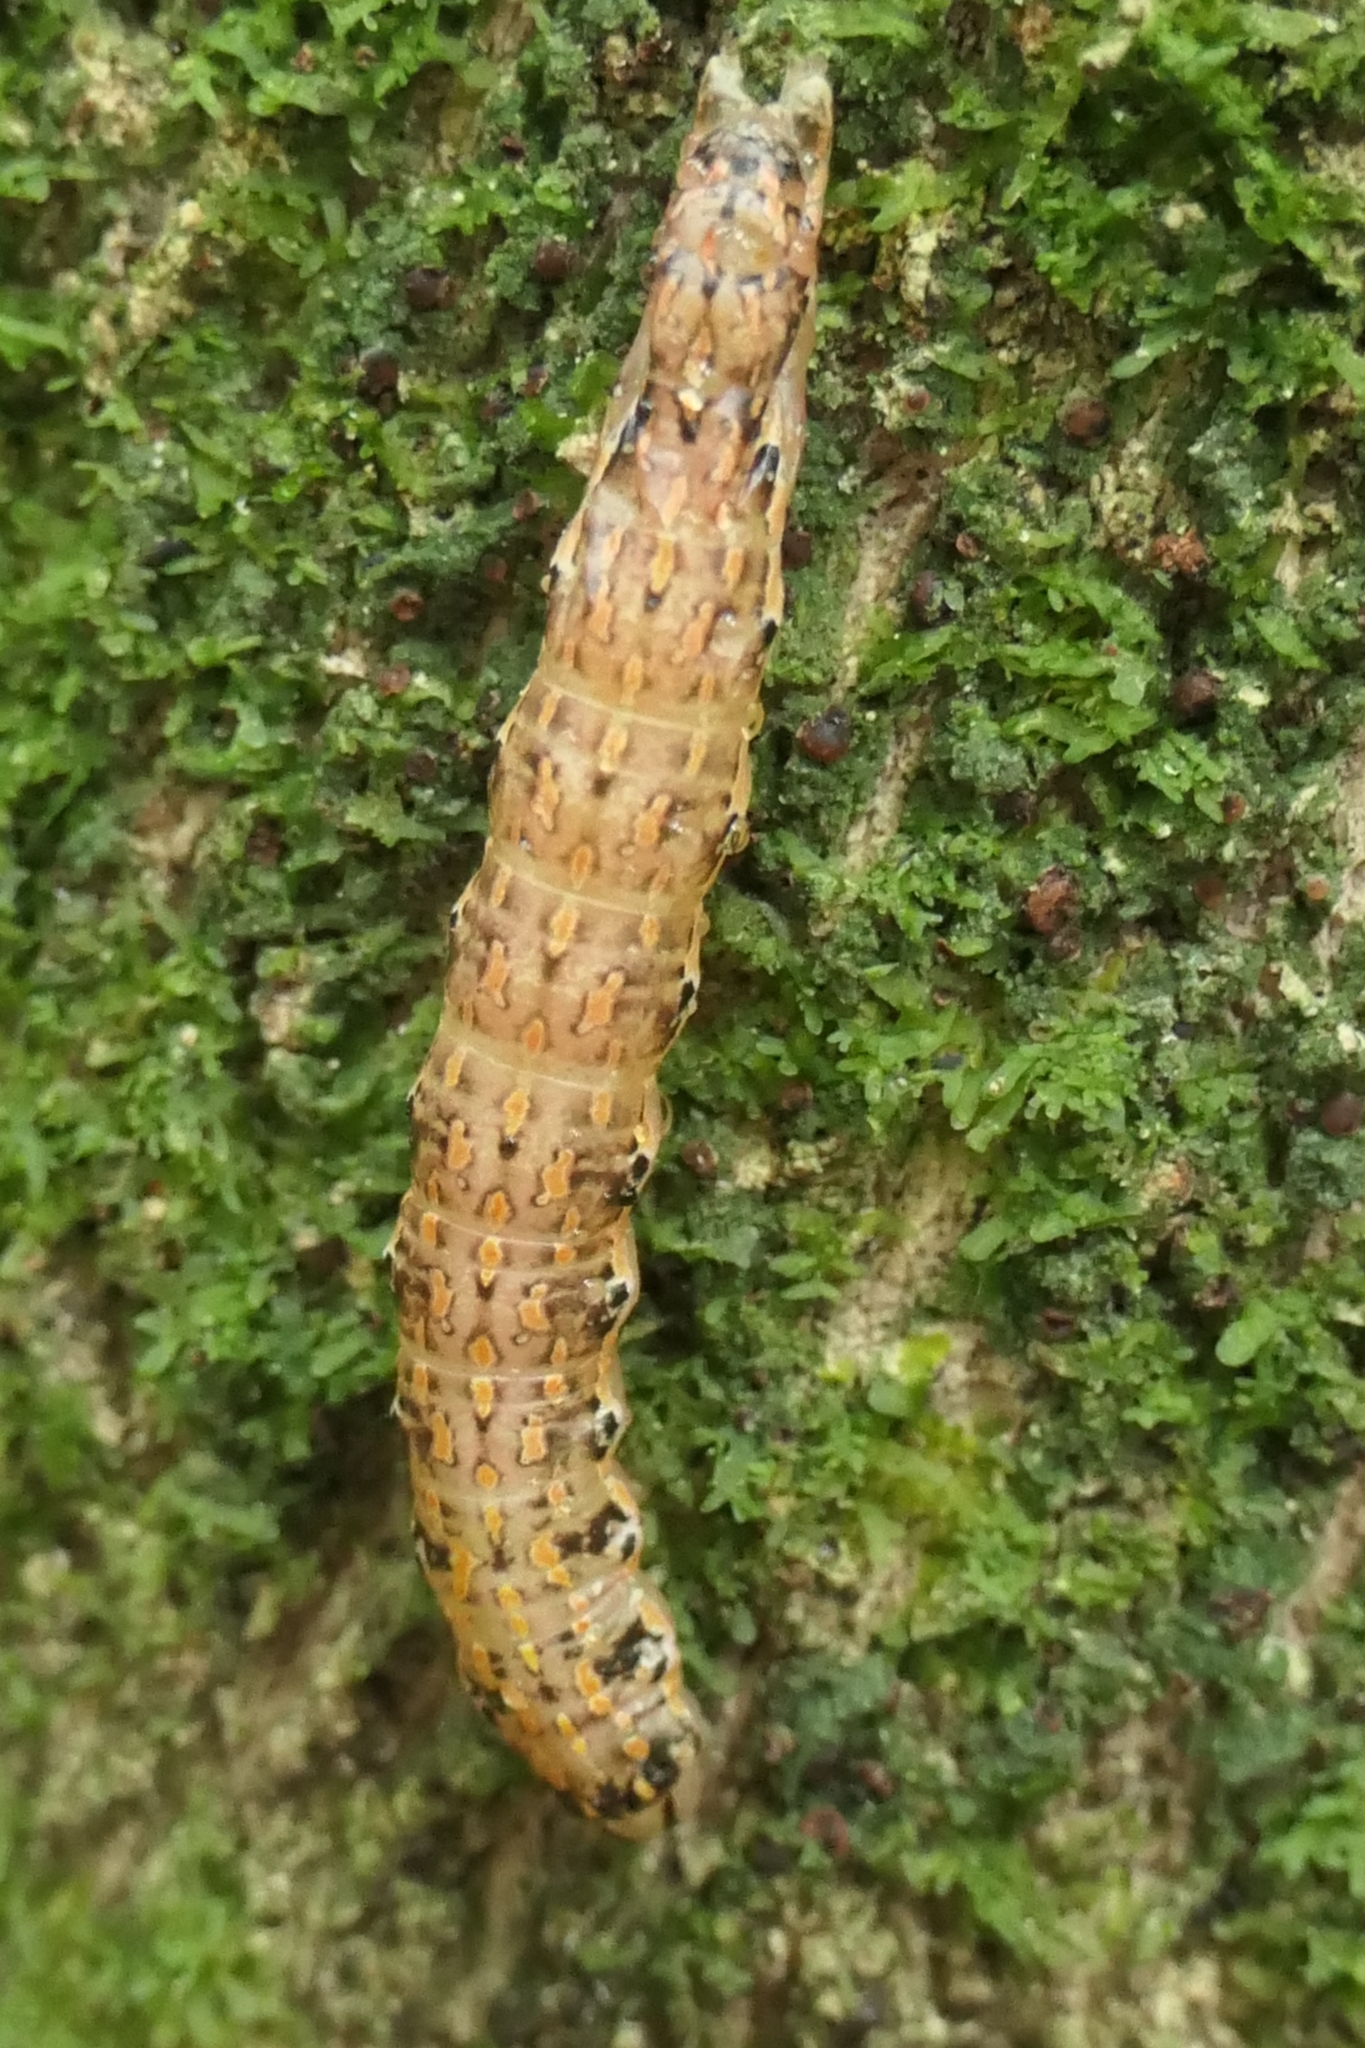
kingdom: Animalia
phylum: Arthropoda
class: Insecta
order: Lepidoptera
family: Noctuidae
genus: Feredayia
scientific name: Feredayia grammosa
